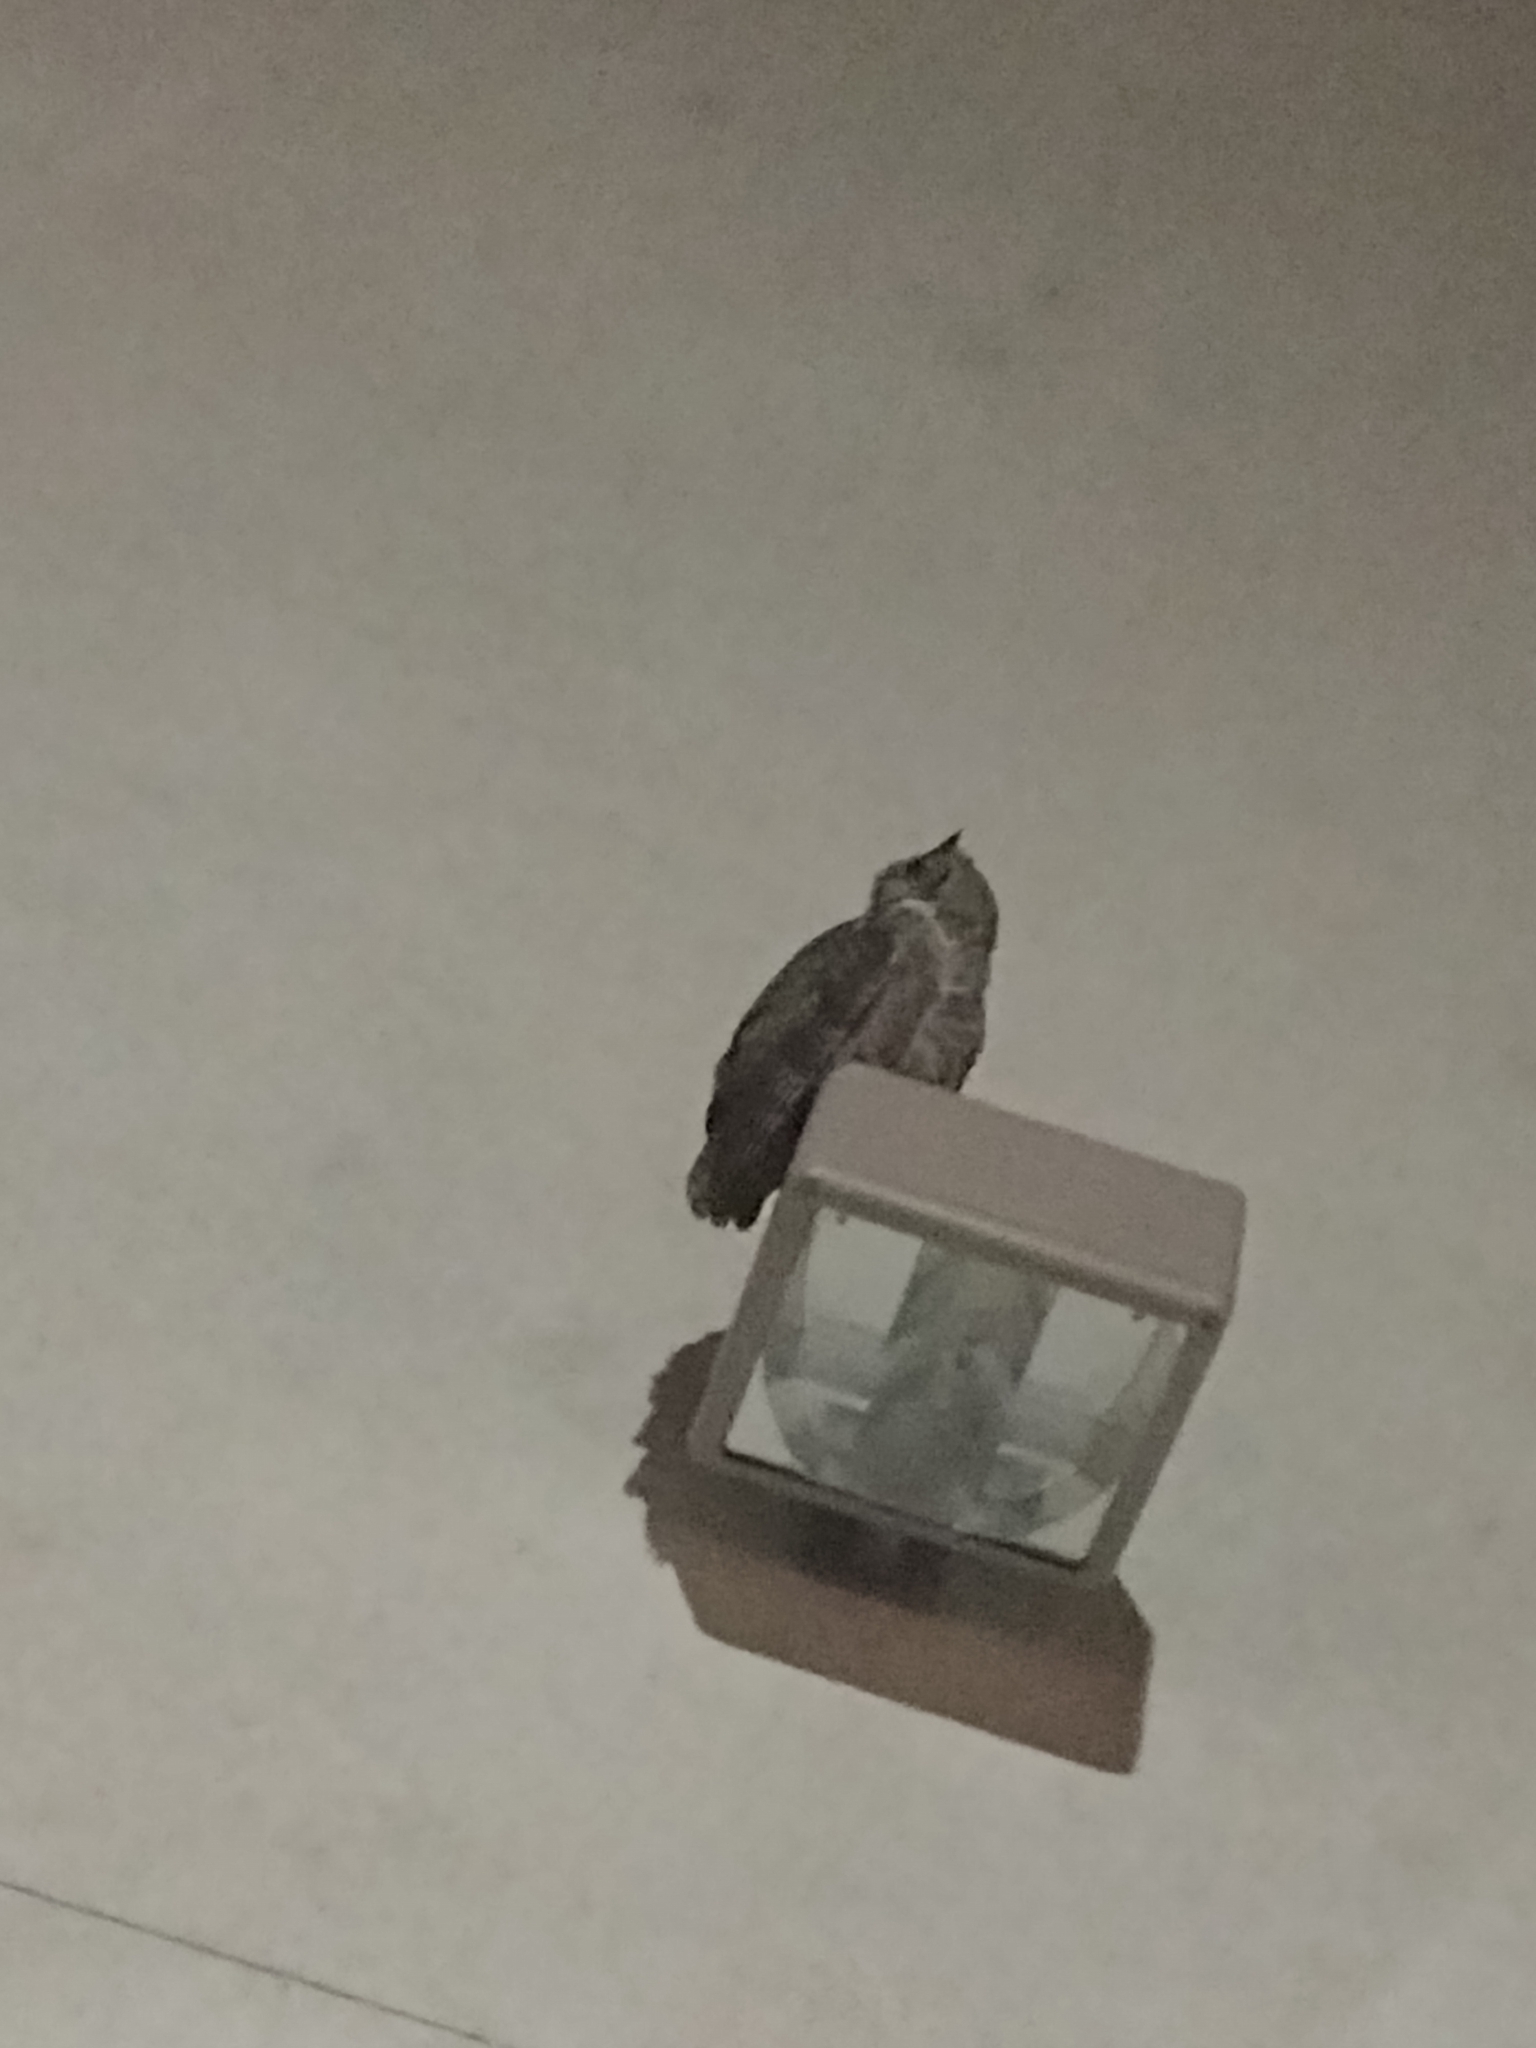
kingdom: Animalia
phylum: Chordata
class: Aves
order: Strigiformes
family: Strigidae
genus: Bubo
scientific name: Bubo virginianus
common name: Great horned owl
